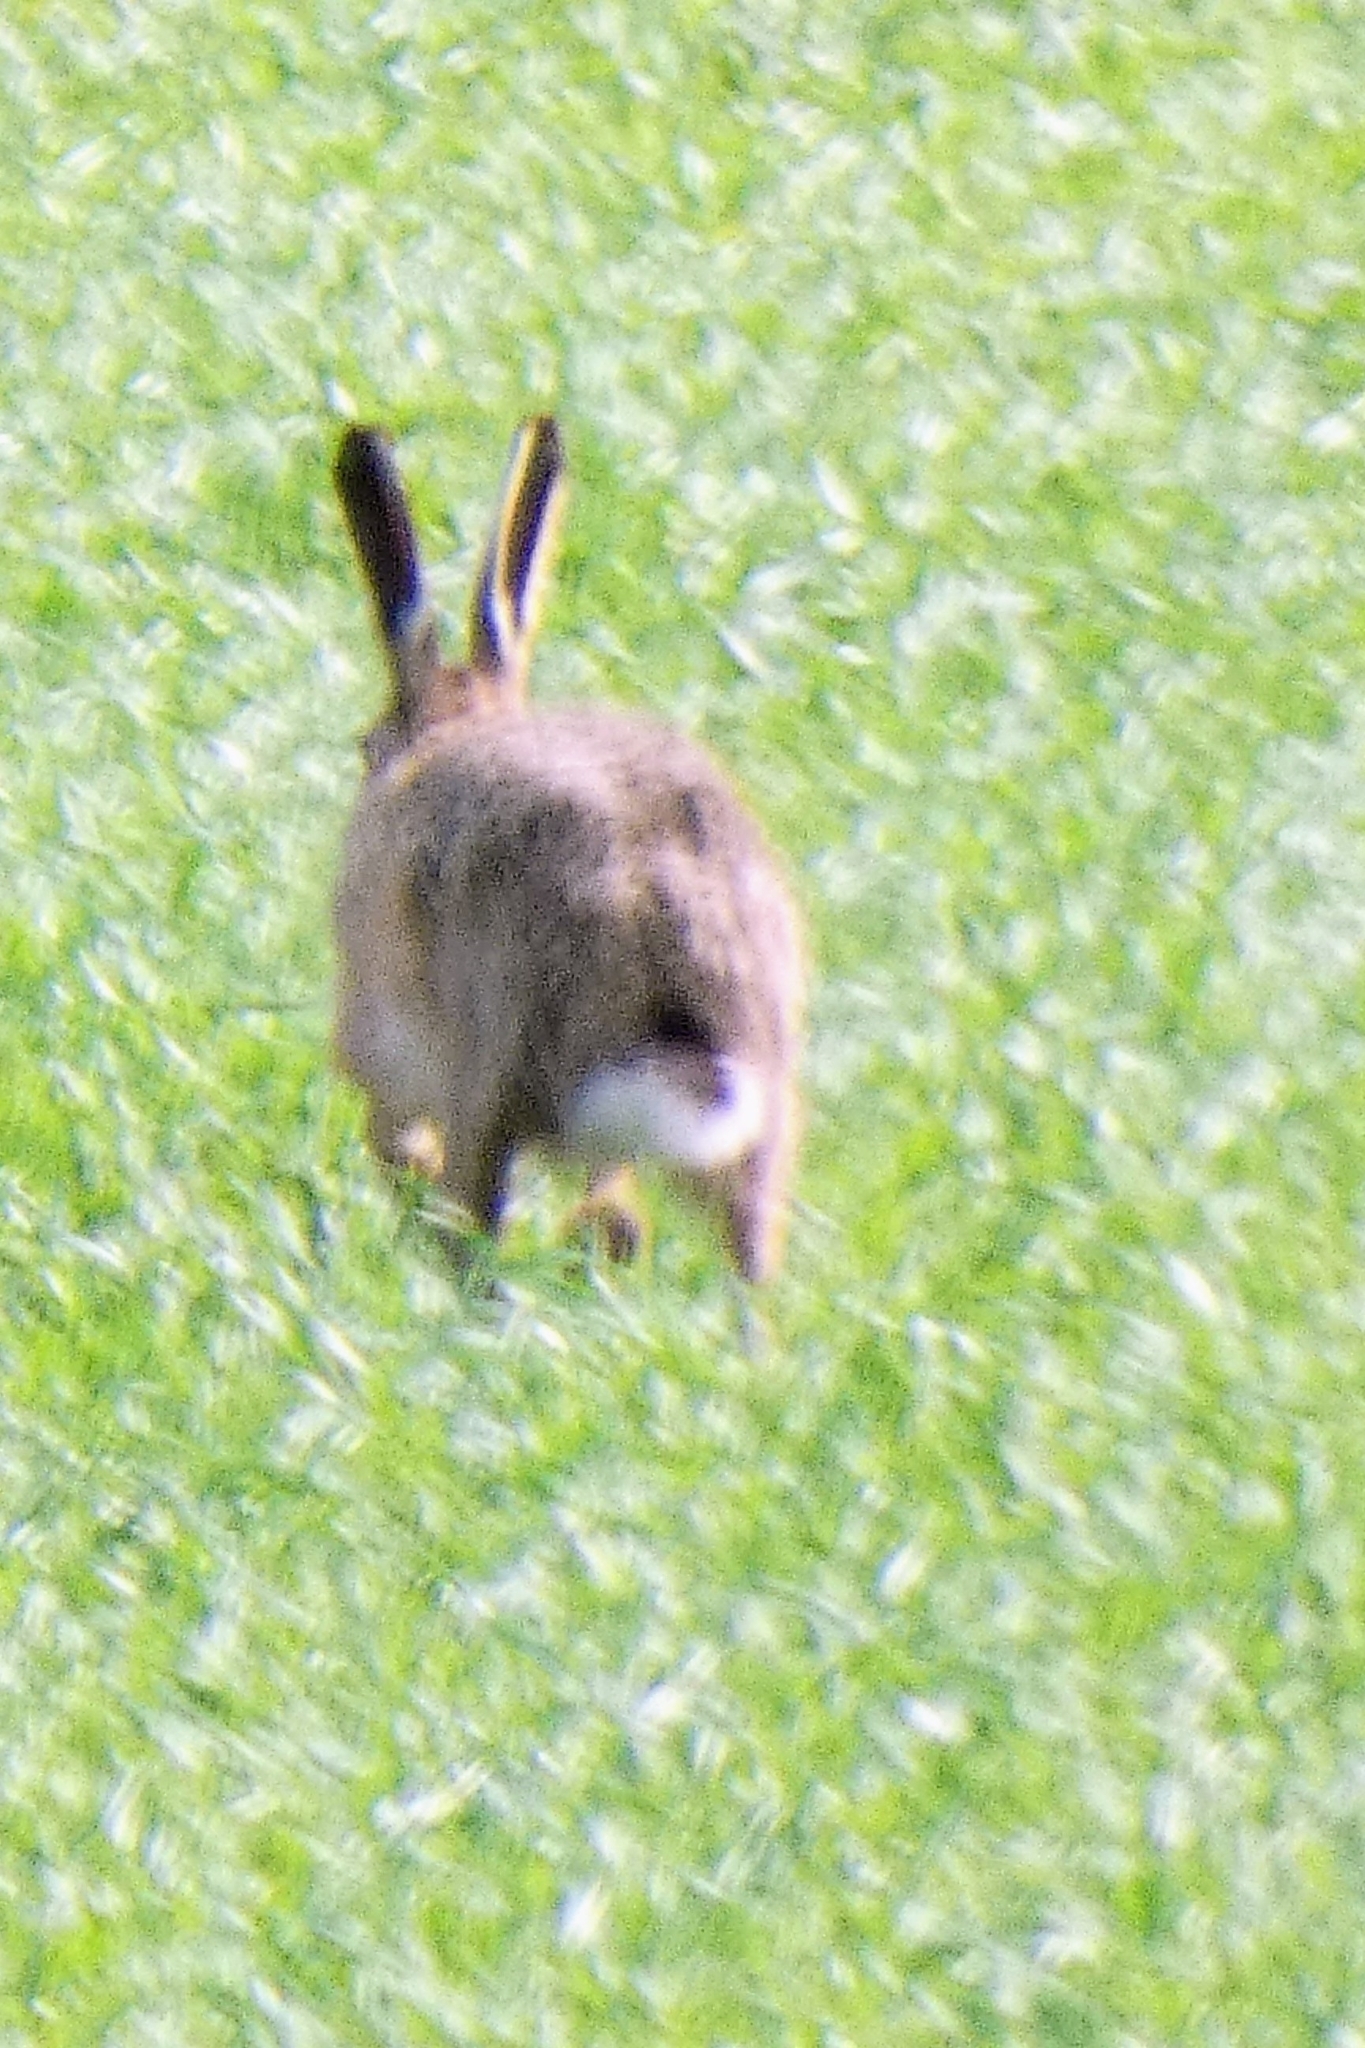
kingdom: Animalia
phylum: Chordata
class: Mammalia
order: Lagomorpha
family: Leporidae
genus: Lepus
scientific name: Lepus europaeus
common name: European hare
